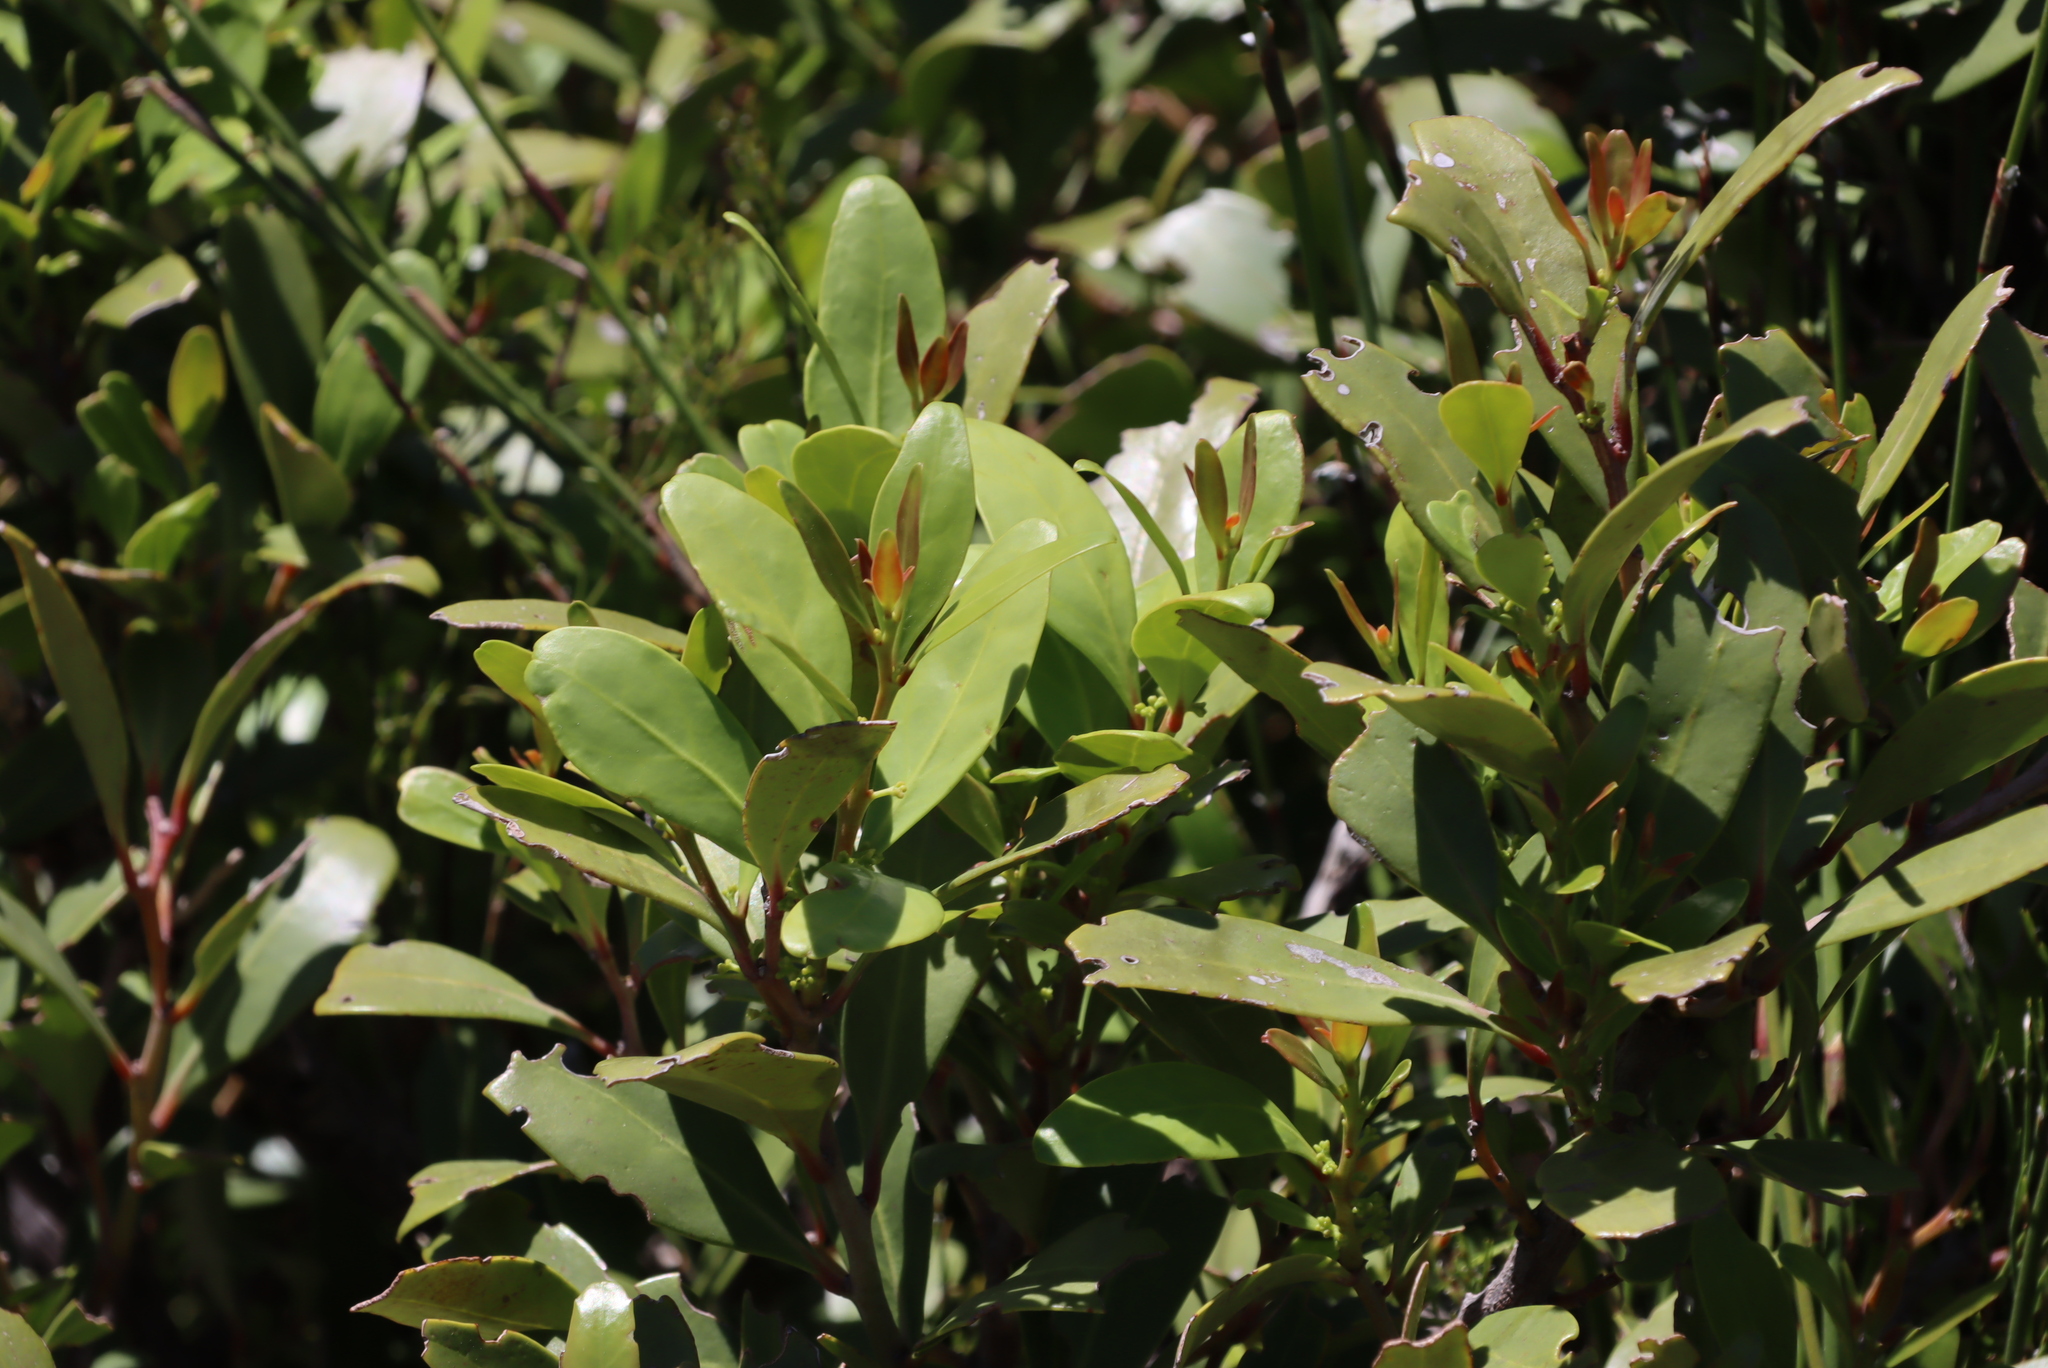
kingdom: Plantae
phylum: Tracheophyta
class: Magnoliopsida
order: Celastrales
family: Celastraceae
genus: Elaeodendron
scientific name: Elaeodendron schinoides
